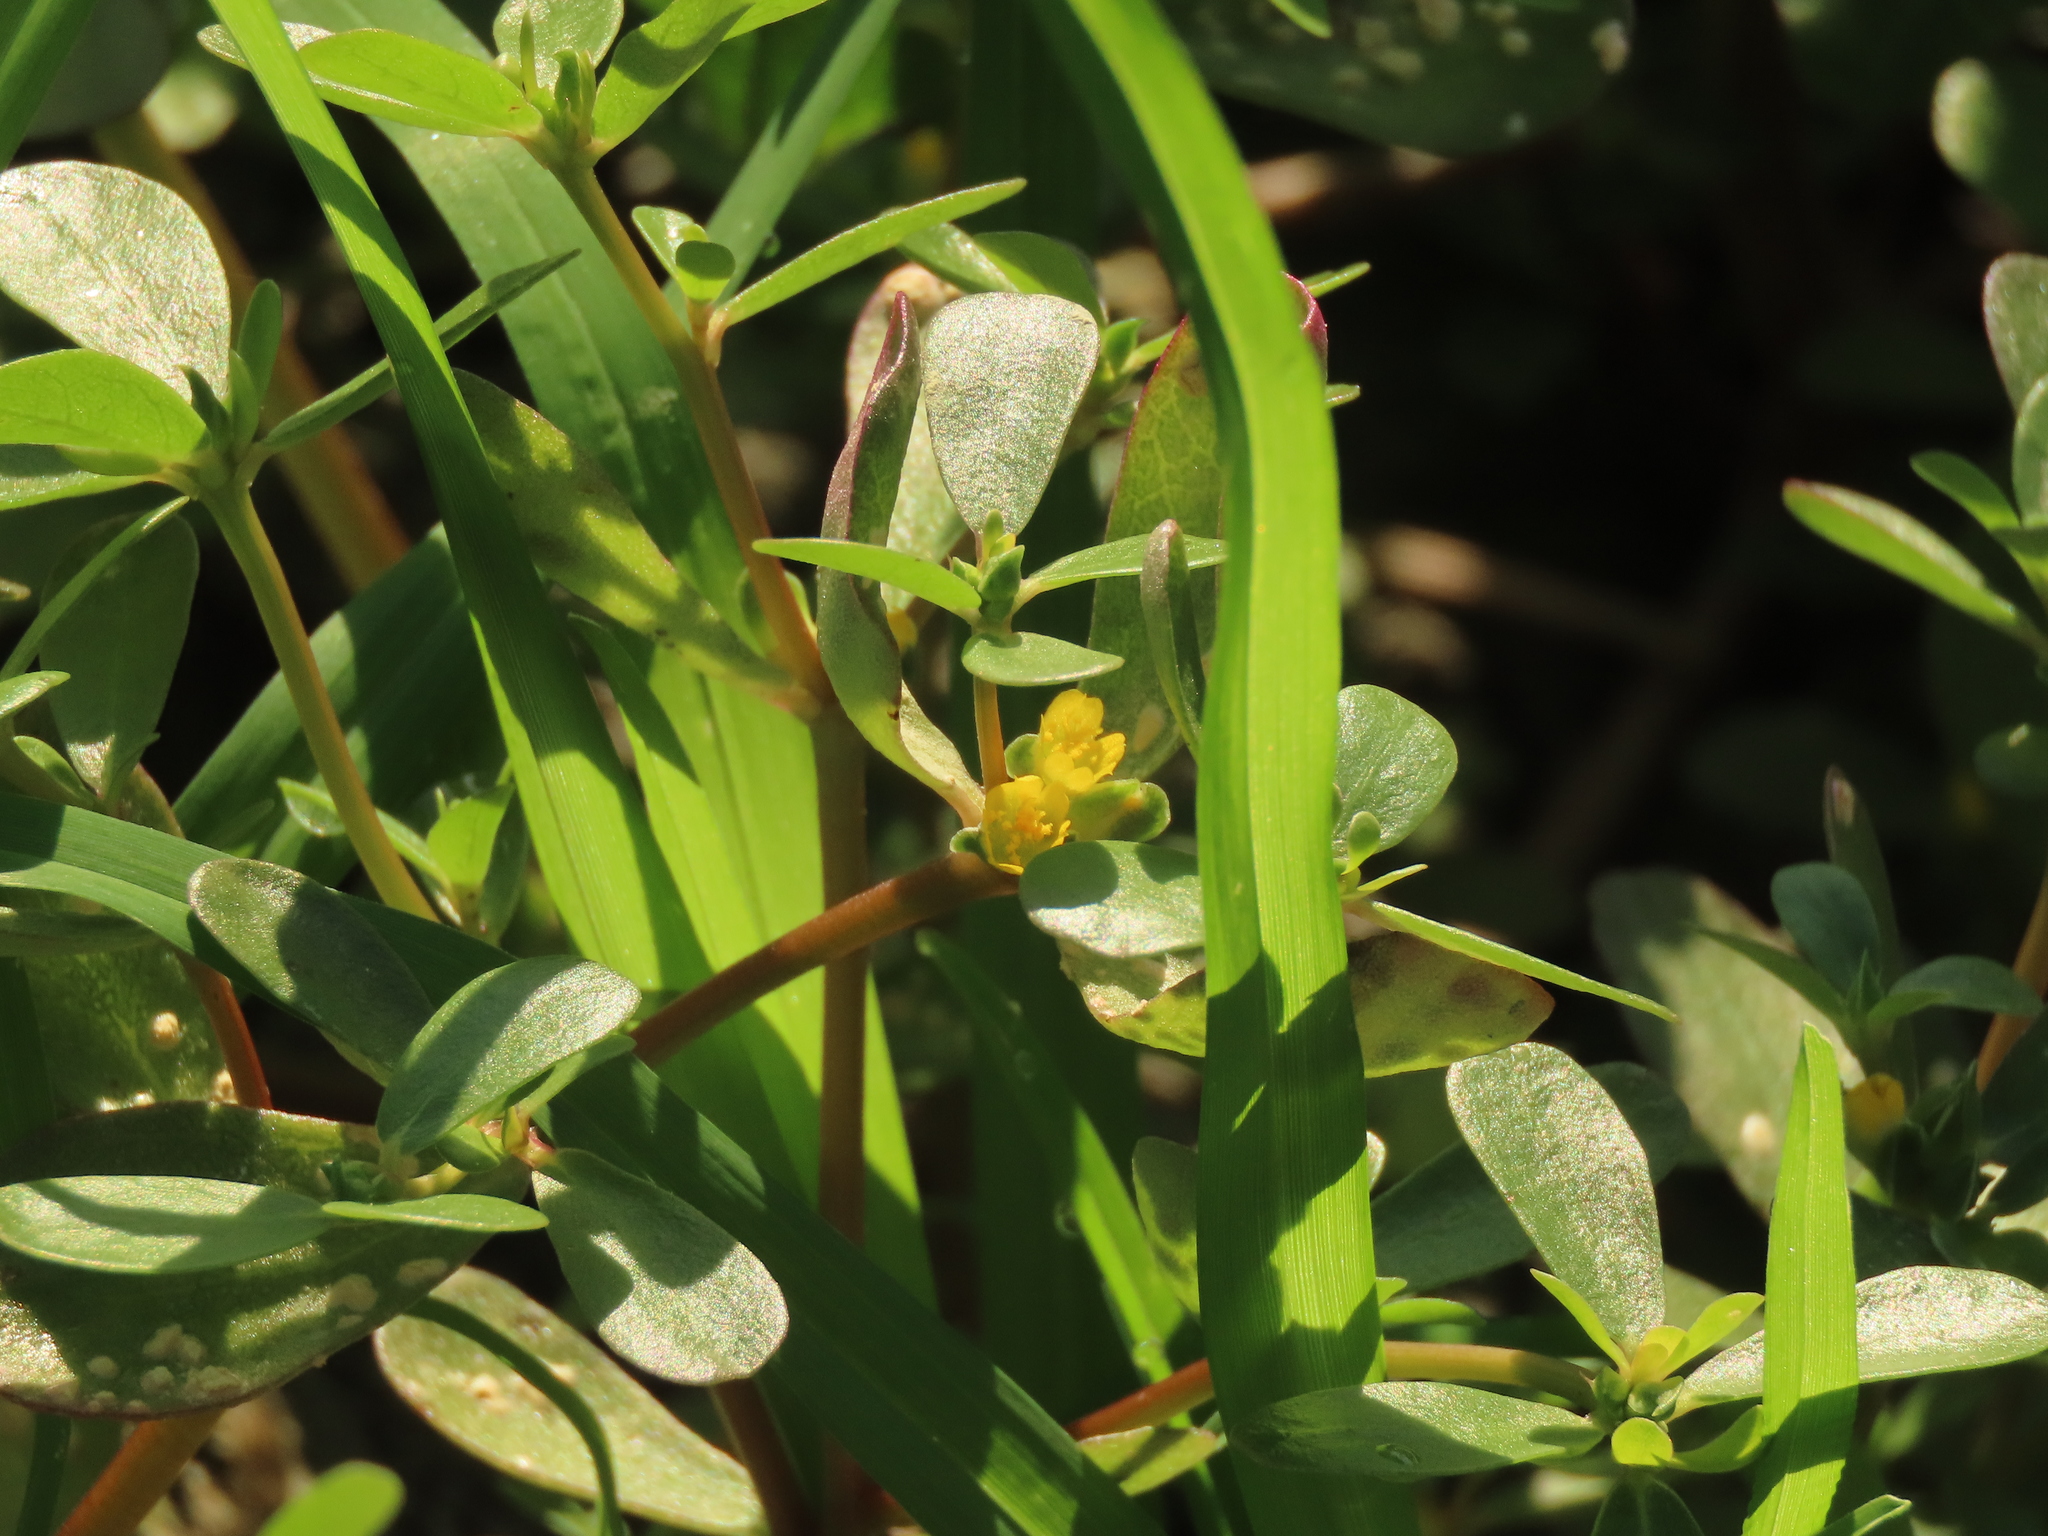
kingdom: Plantae
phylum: Tracheophyta
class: Magnoliopsida
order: Caryophyllales
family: Portulacaceae
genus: Portulaca
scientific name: Portulaca oleracea
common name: Common purslane
